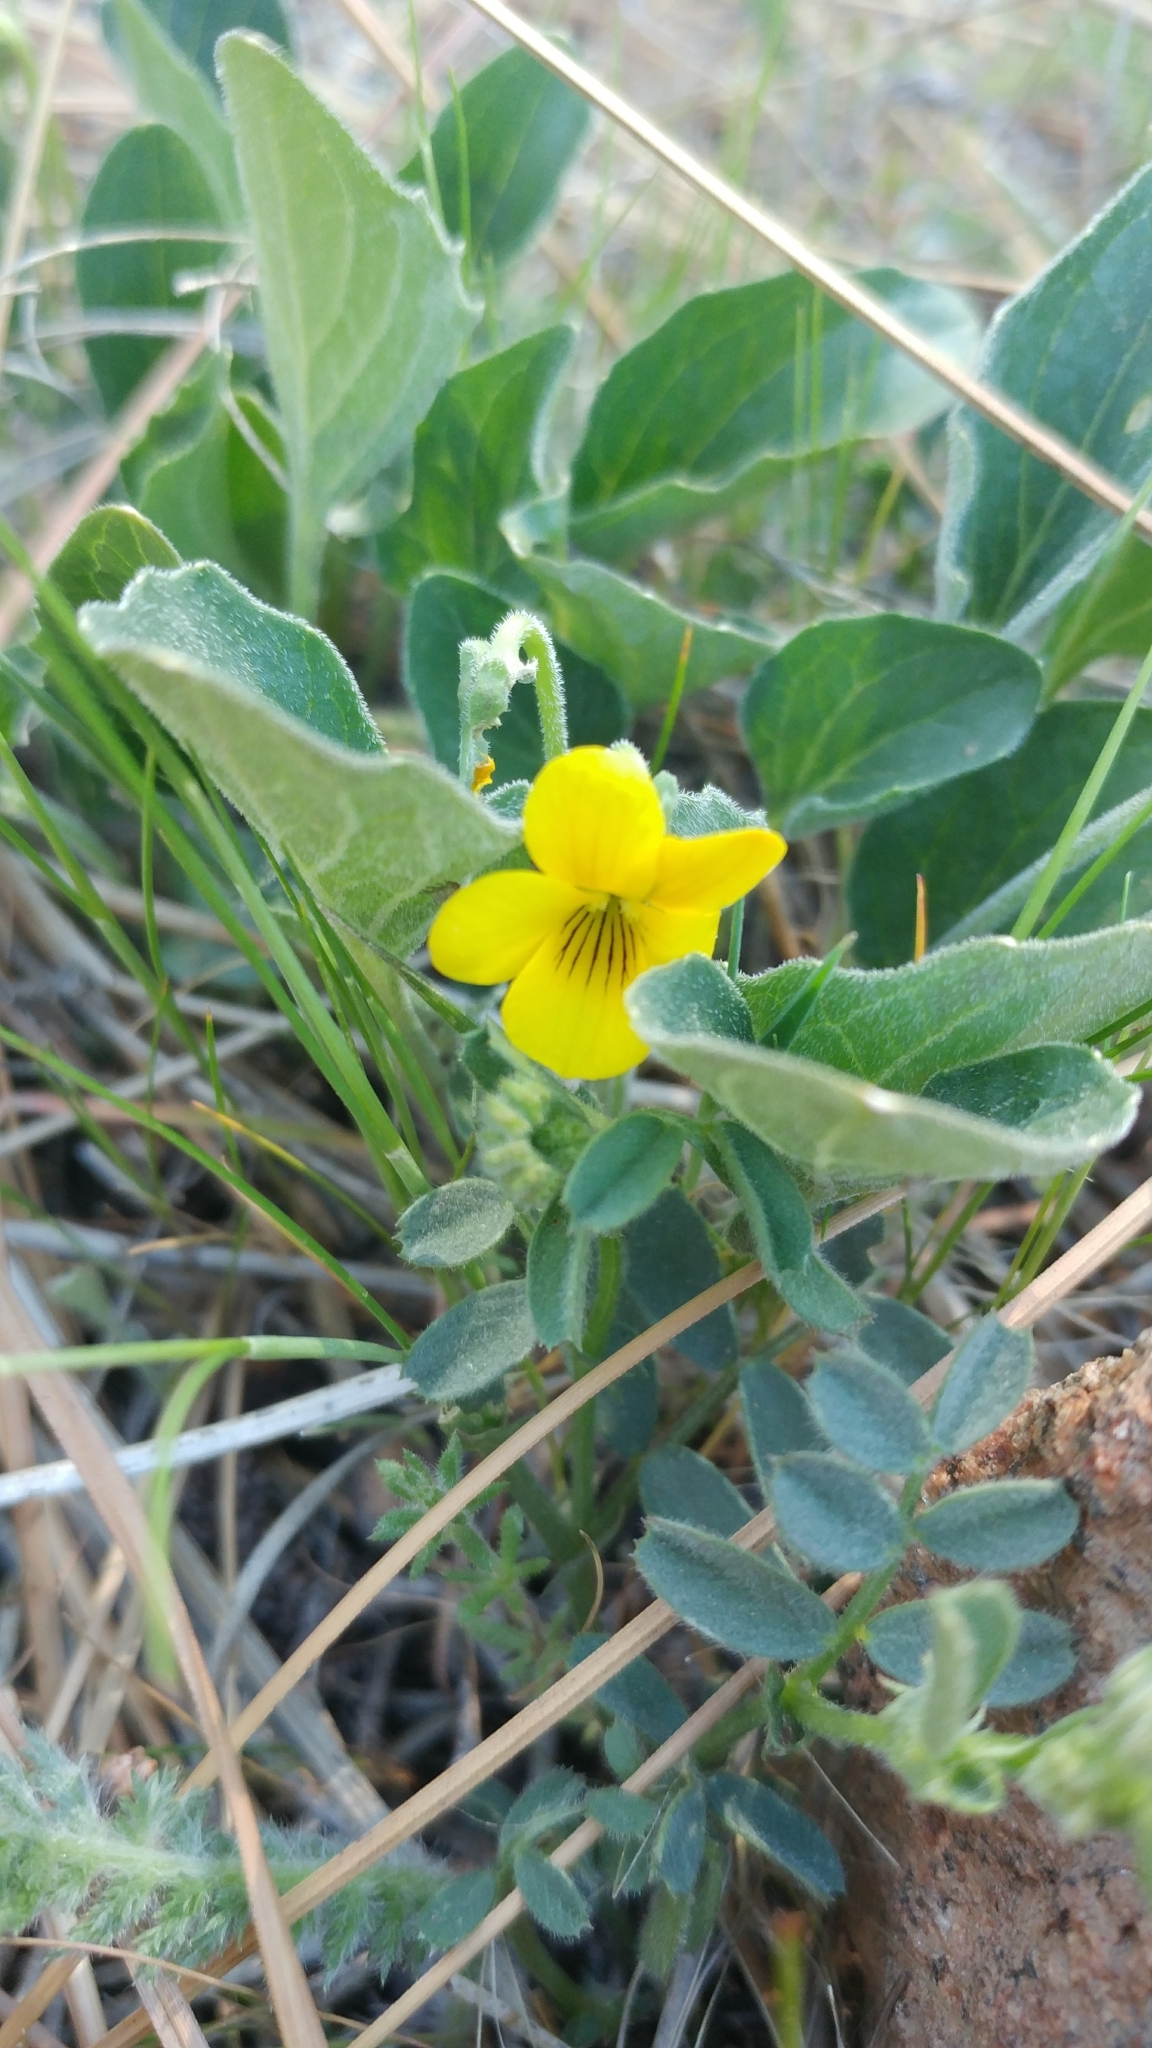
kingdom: Plantae
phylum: Tracheophyta
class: Magnoliopsida
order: Malpighiales
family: Violaceae
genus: Viola
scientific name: Viola quercetorum
